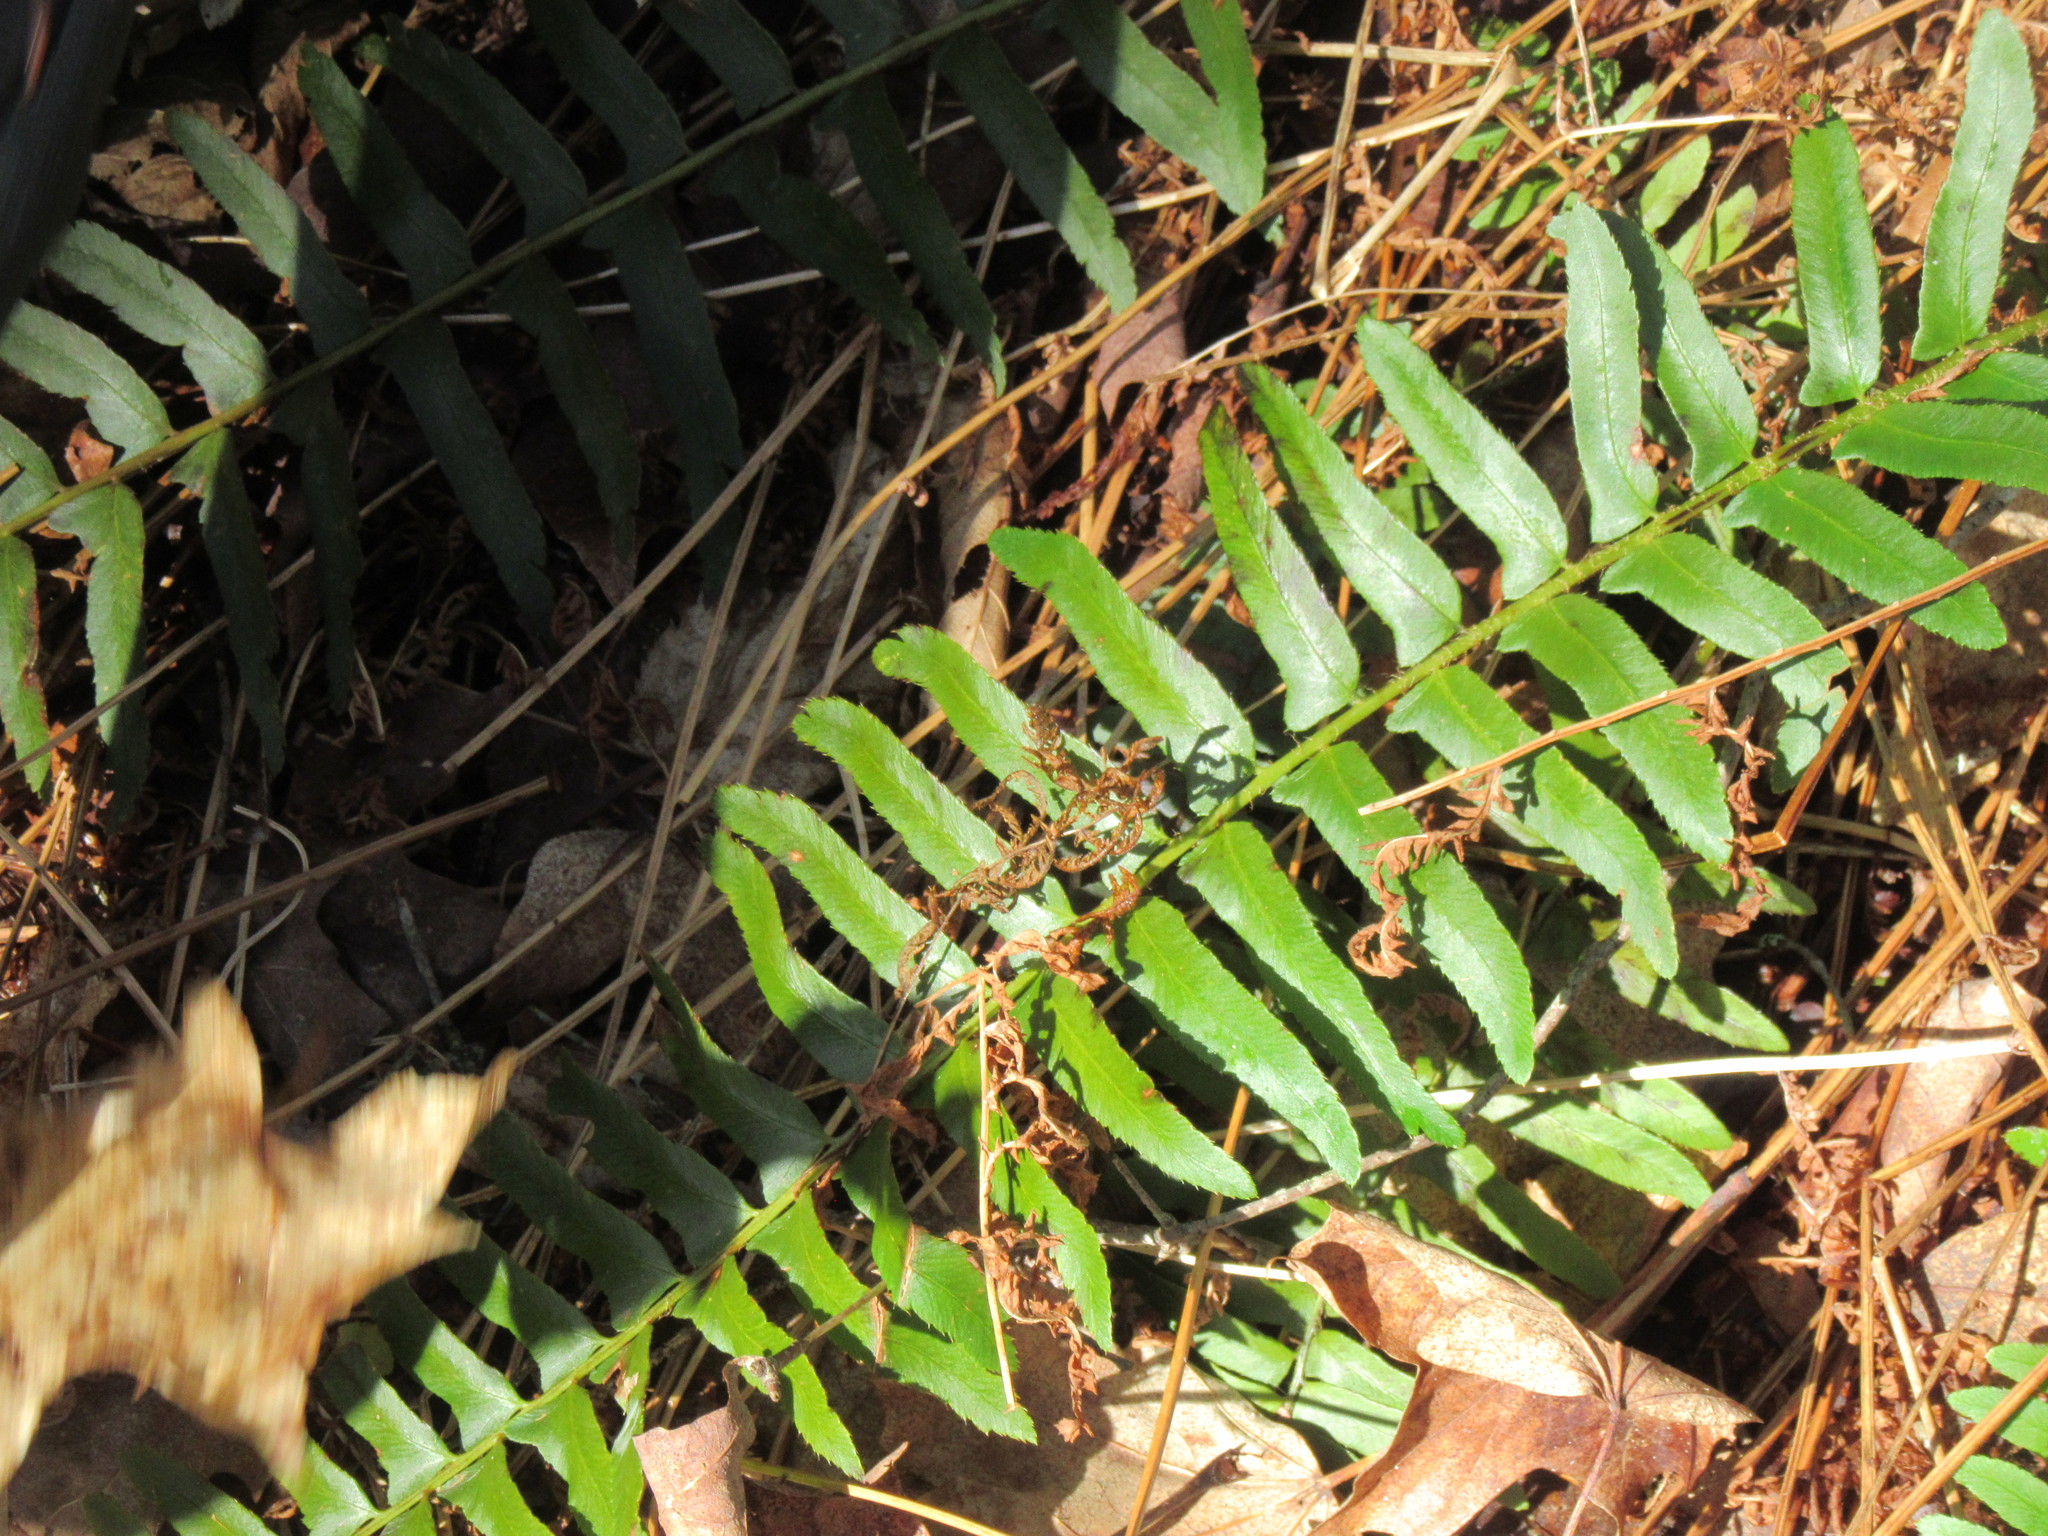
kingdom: Plantae
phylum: Tracheophyta
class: Polypodiopsida
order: Polypodiales
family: Dryopteridaceae
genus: Polystichum
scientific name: Polystichum acrostichoides
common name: Christmas fern
